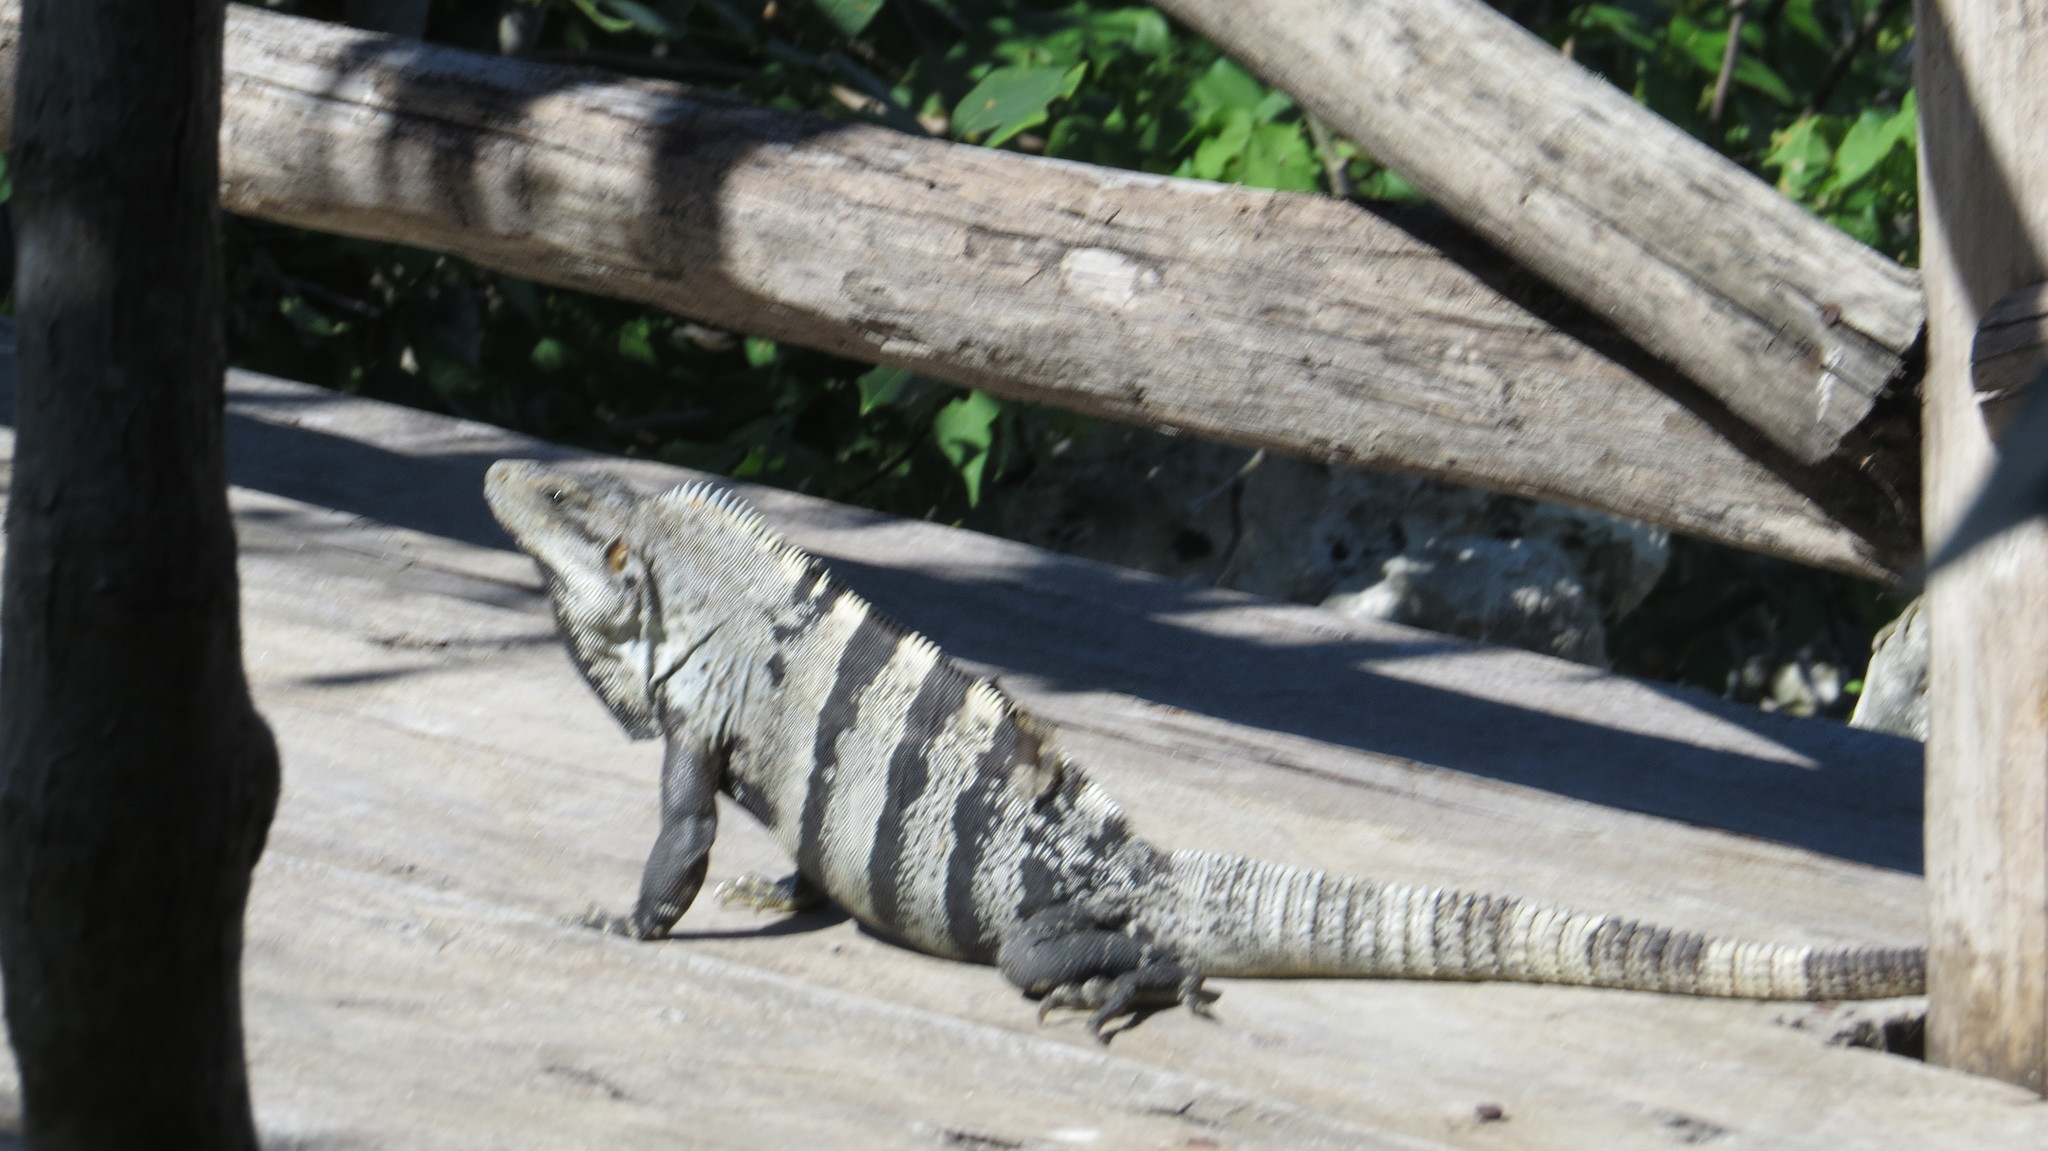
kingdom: Animalia
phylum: Chordata
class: Squamata
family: Iguanidae
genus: Ctenosaura
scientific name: Ctenosaura similis
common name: Black spiny-tailed iguana
